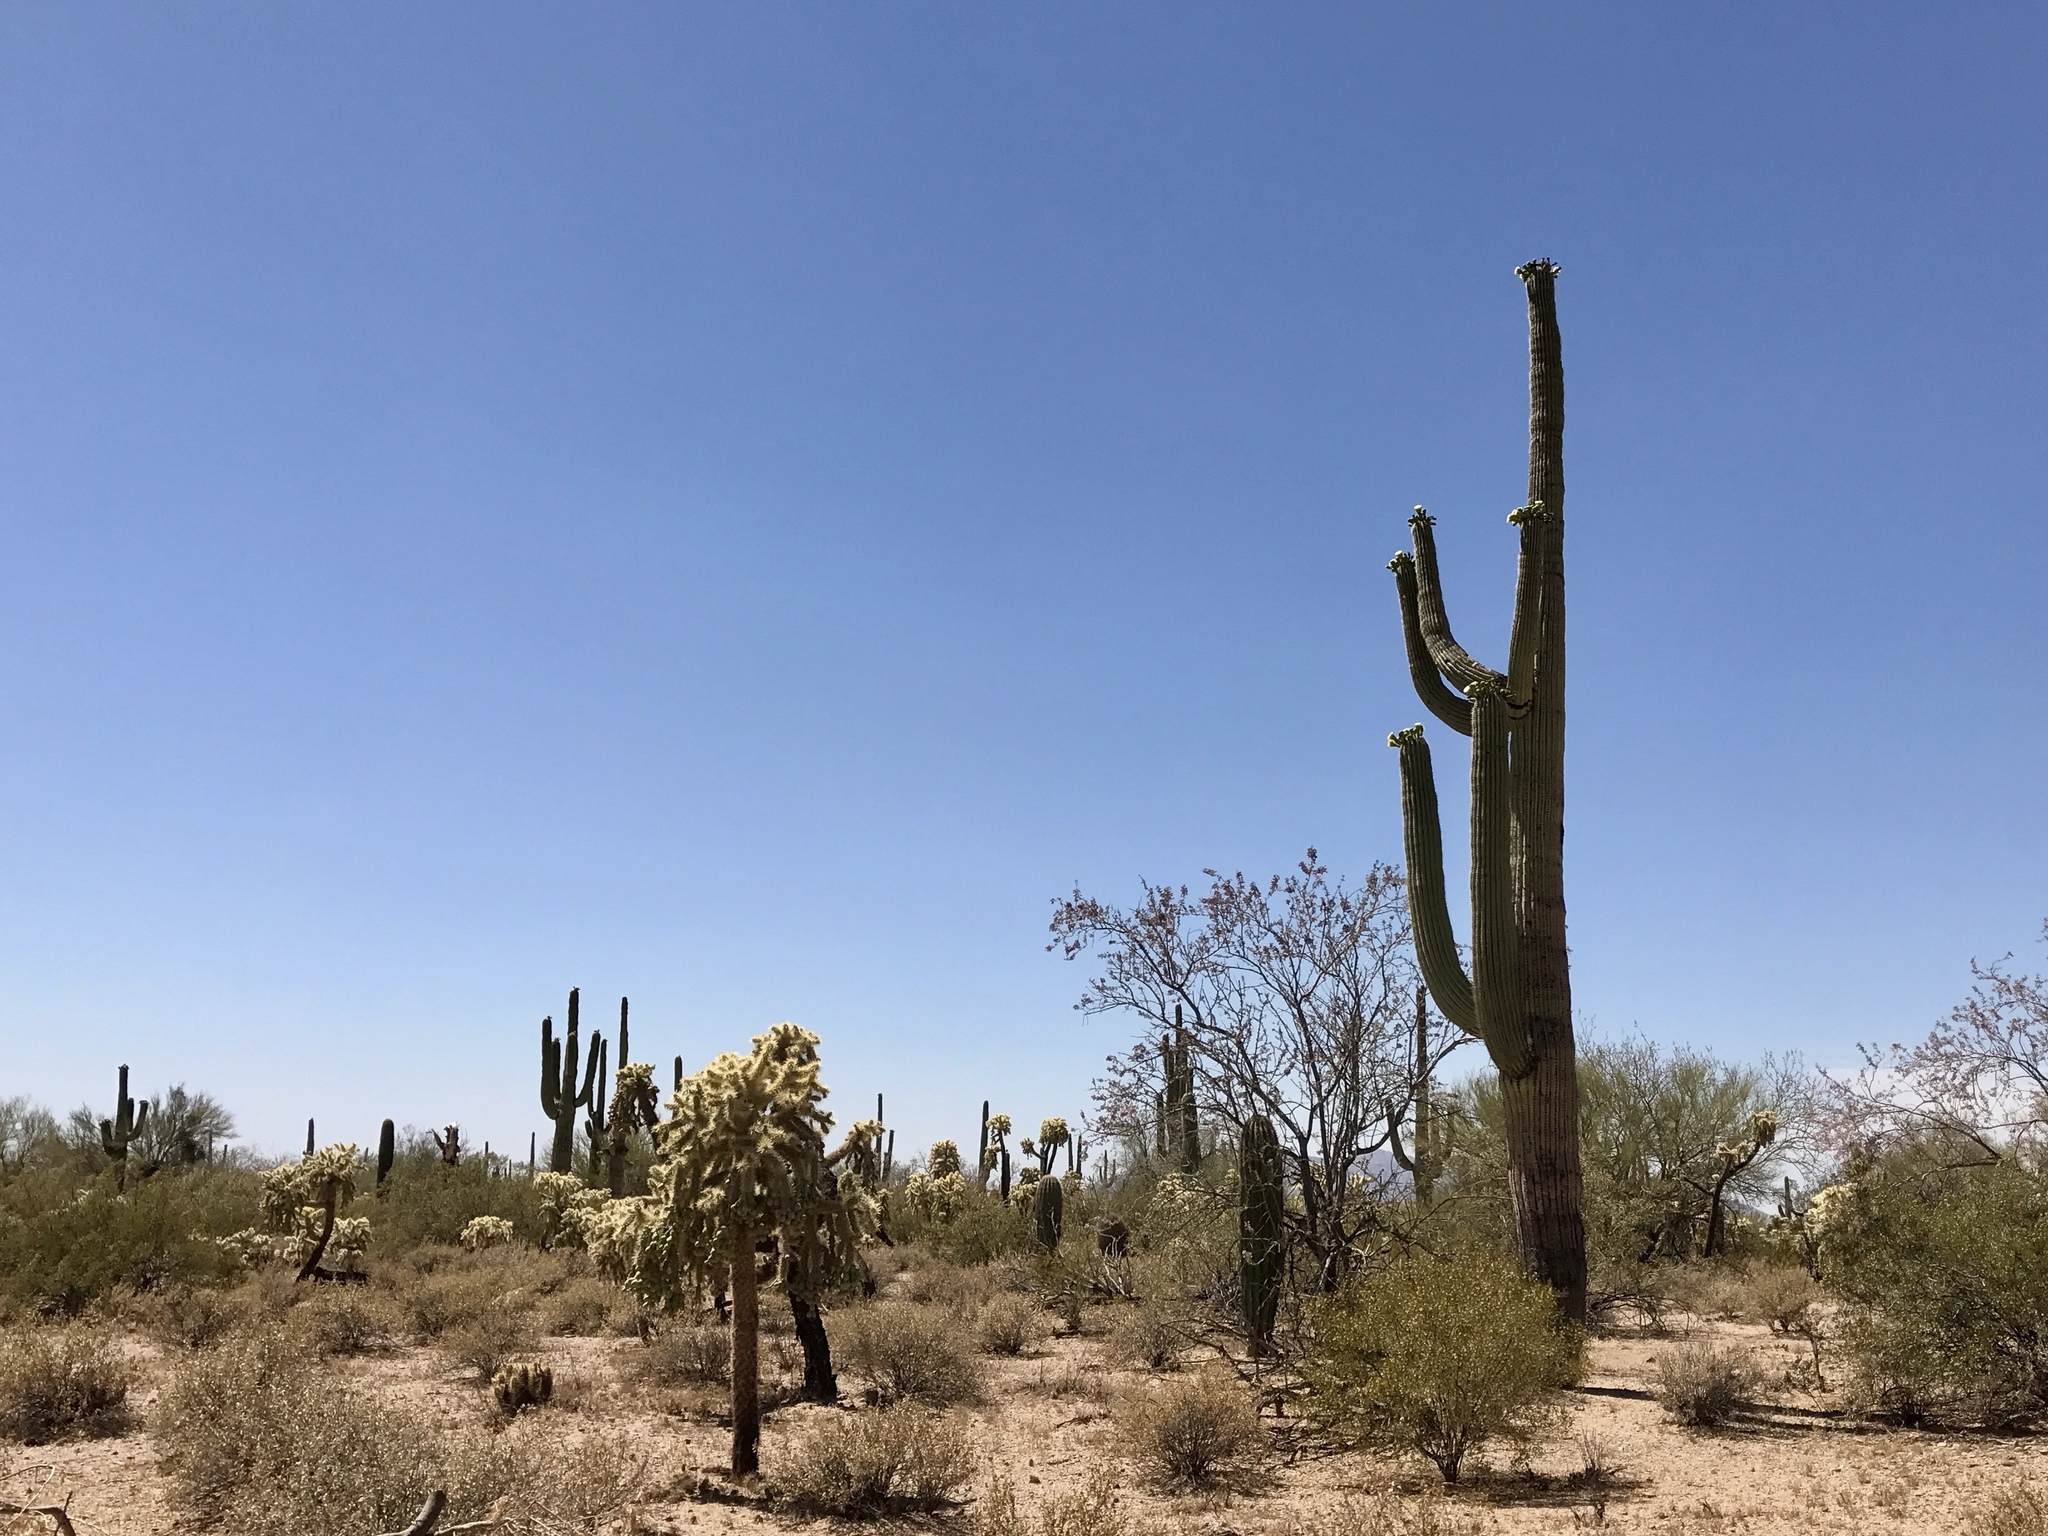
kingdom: Plantae
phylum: Tracheophyta
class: Magnoliopsida
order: Caryophyllales
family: Cactaceae
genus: Carnegiea
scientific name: Carnegiea gigantea
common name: Saguaro
